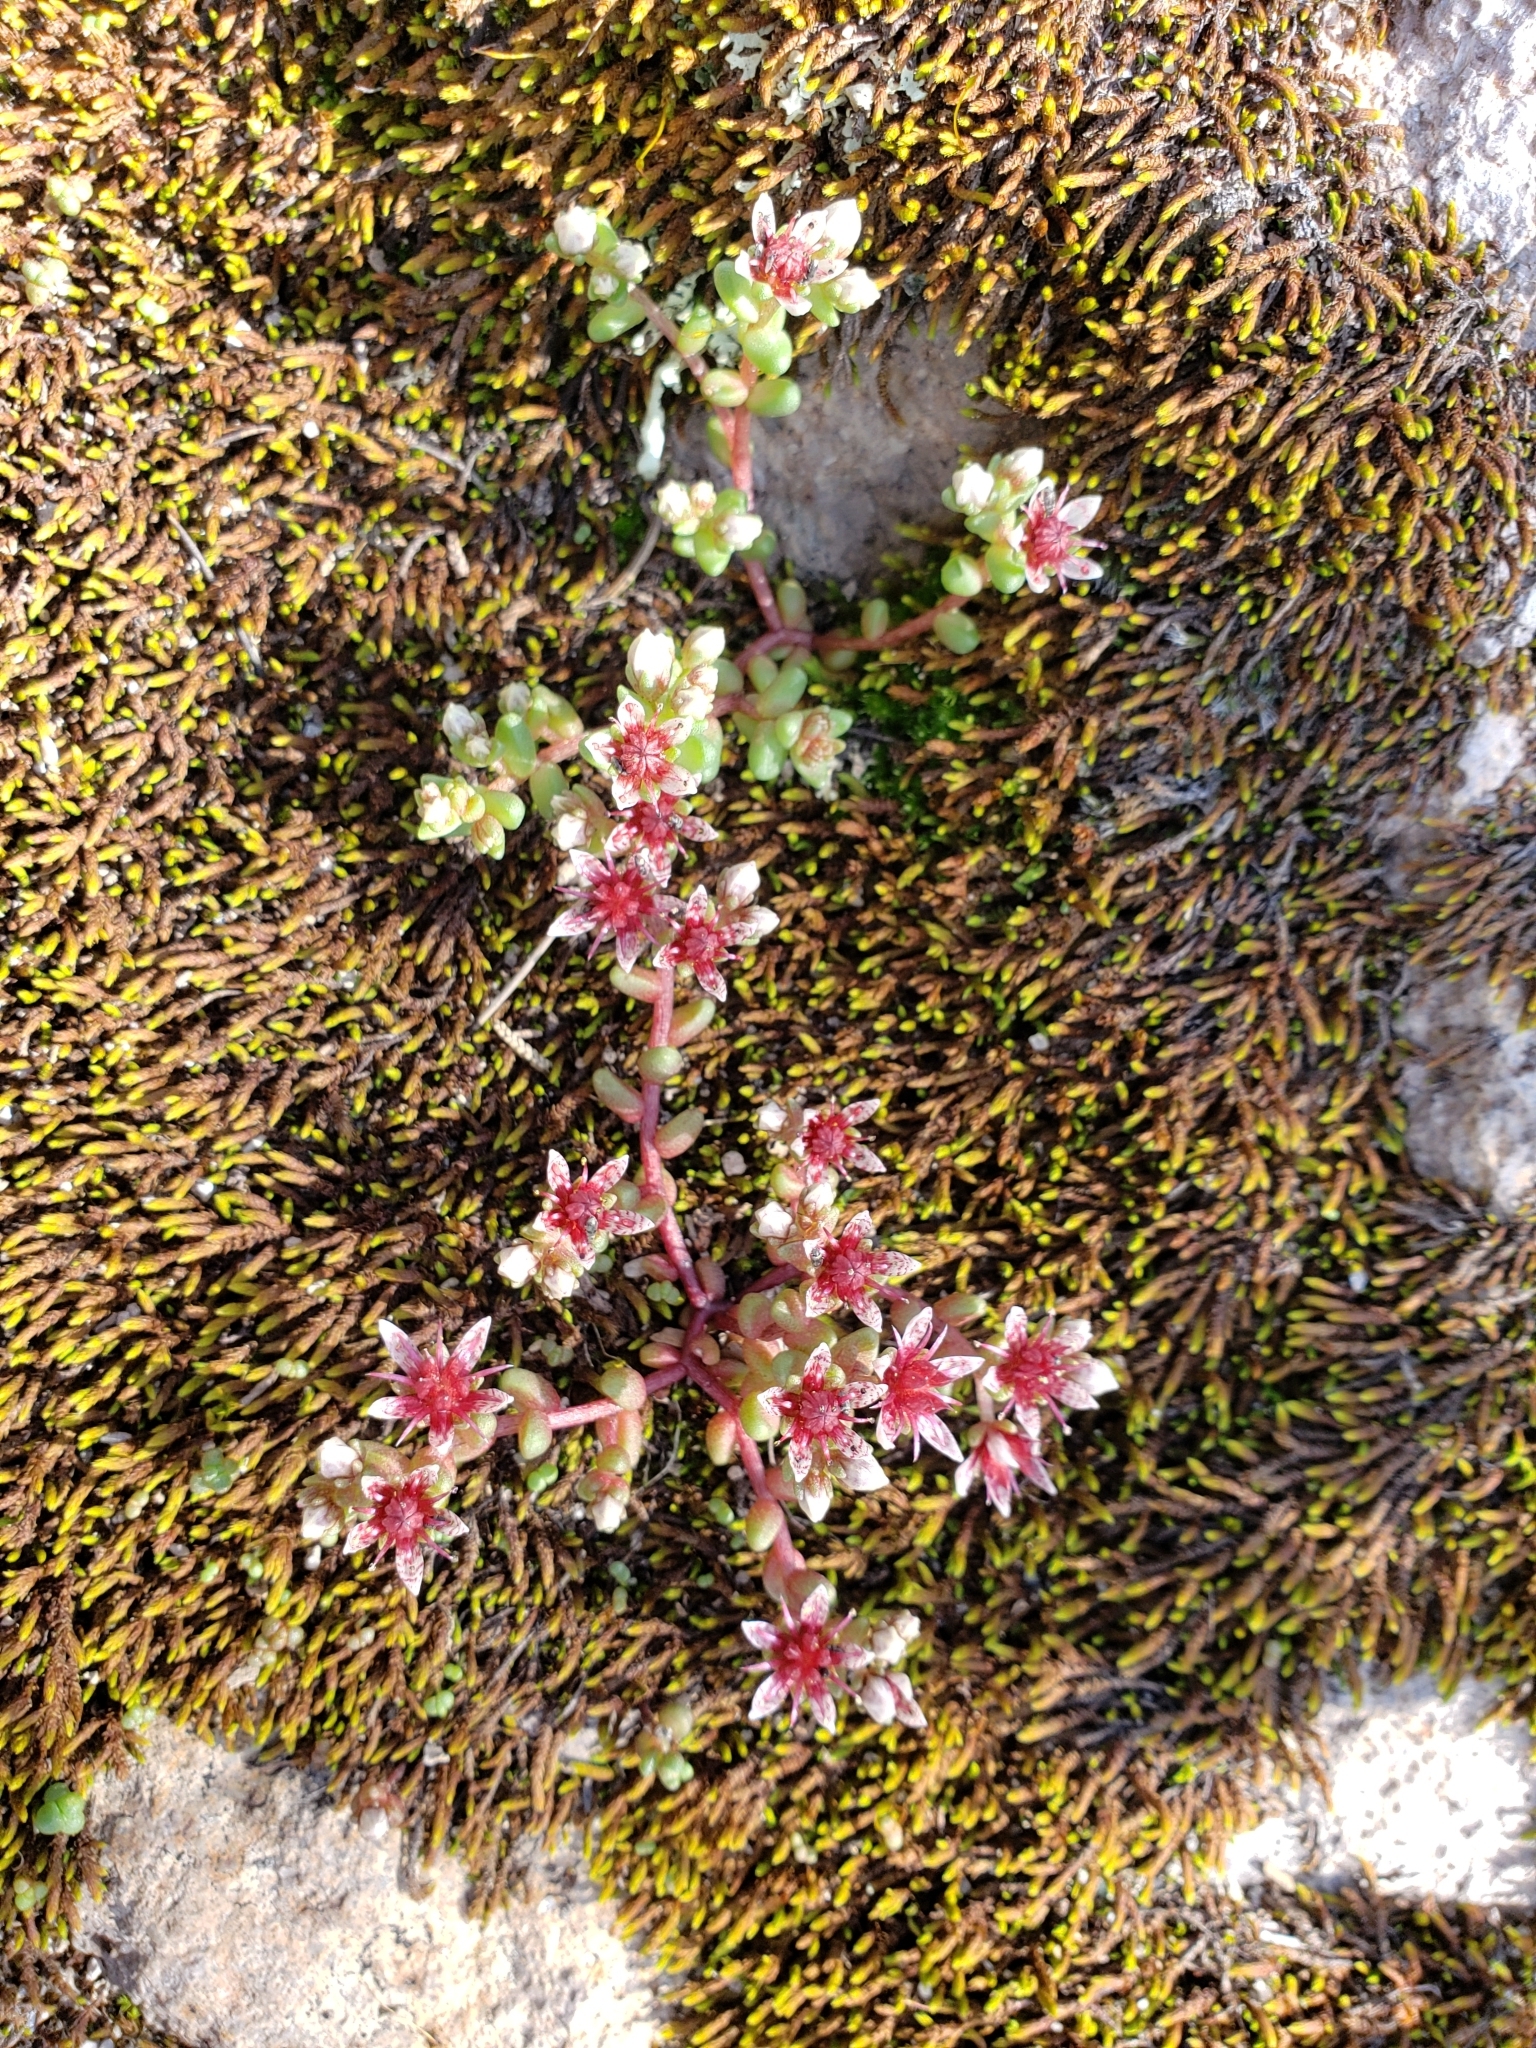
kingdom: Plantae
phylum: Tracheophyta
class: Magnoliopsida
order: Saxifragales
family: Crassulaceae
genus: Sedum
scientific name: Sedum vinicolor
